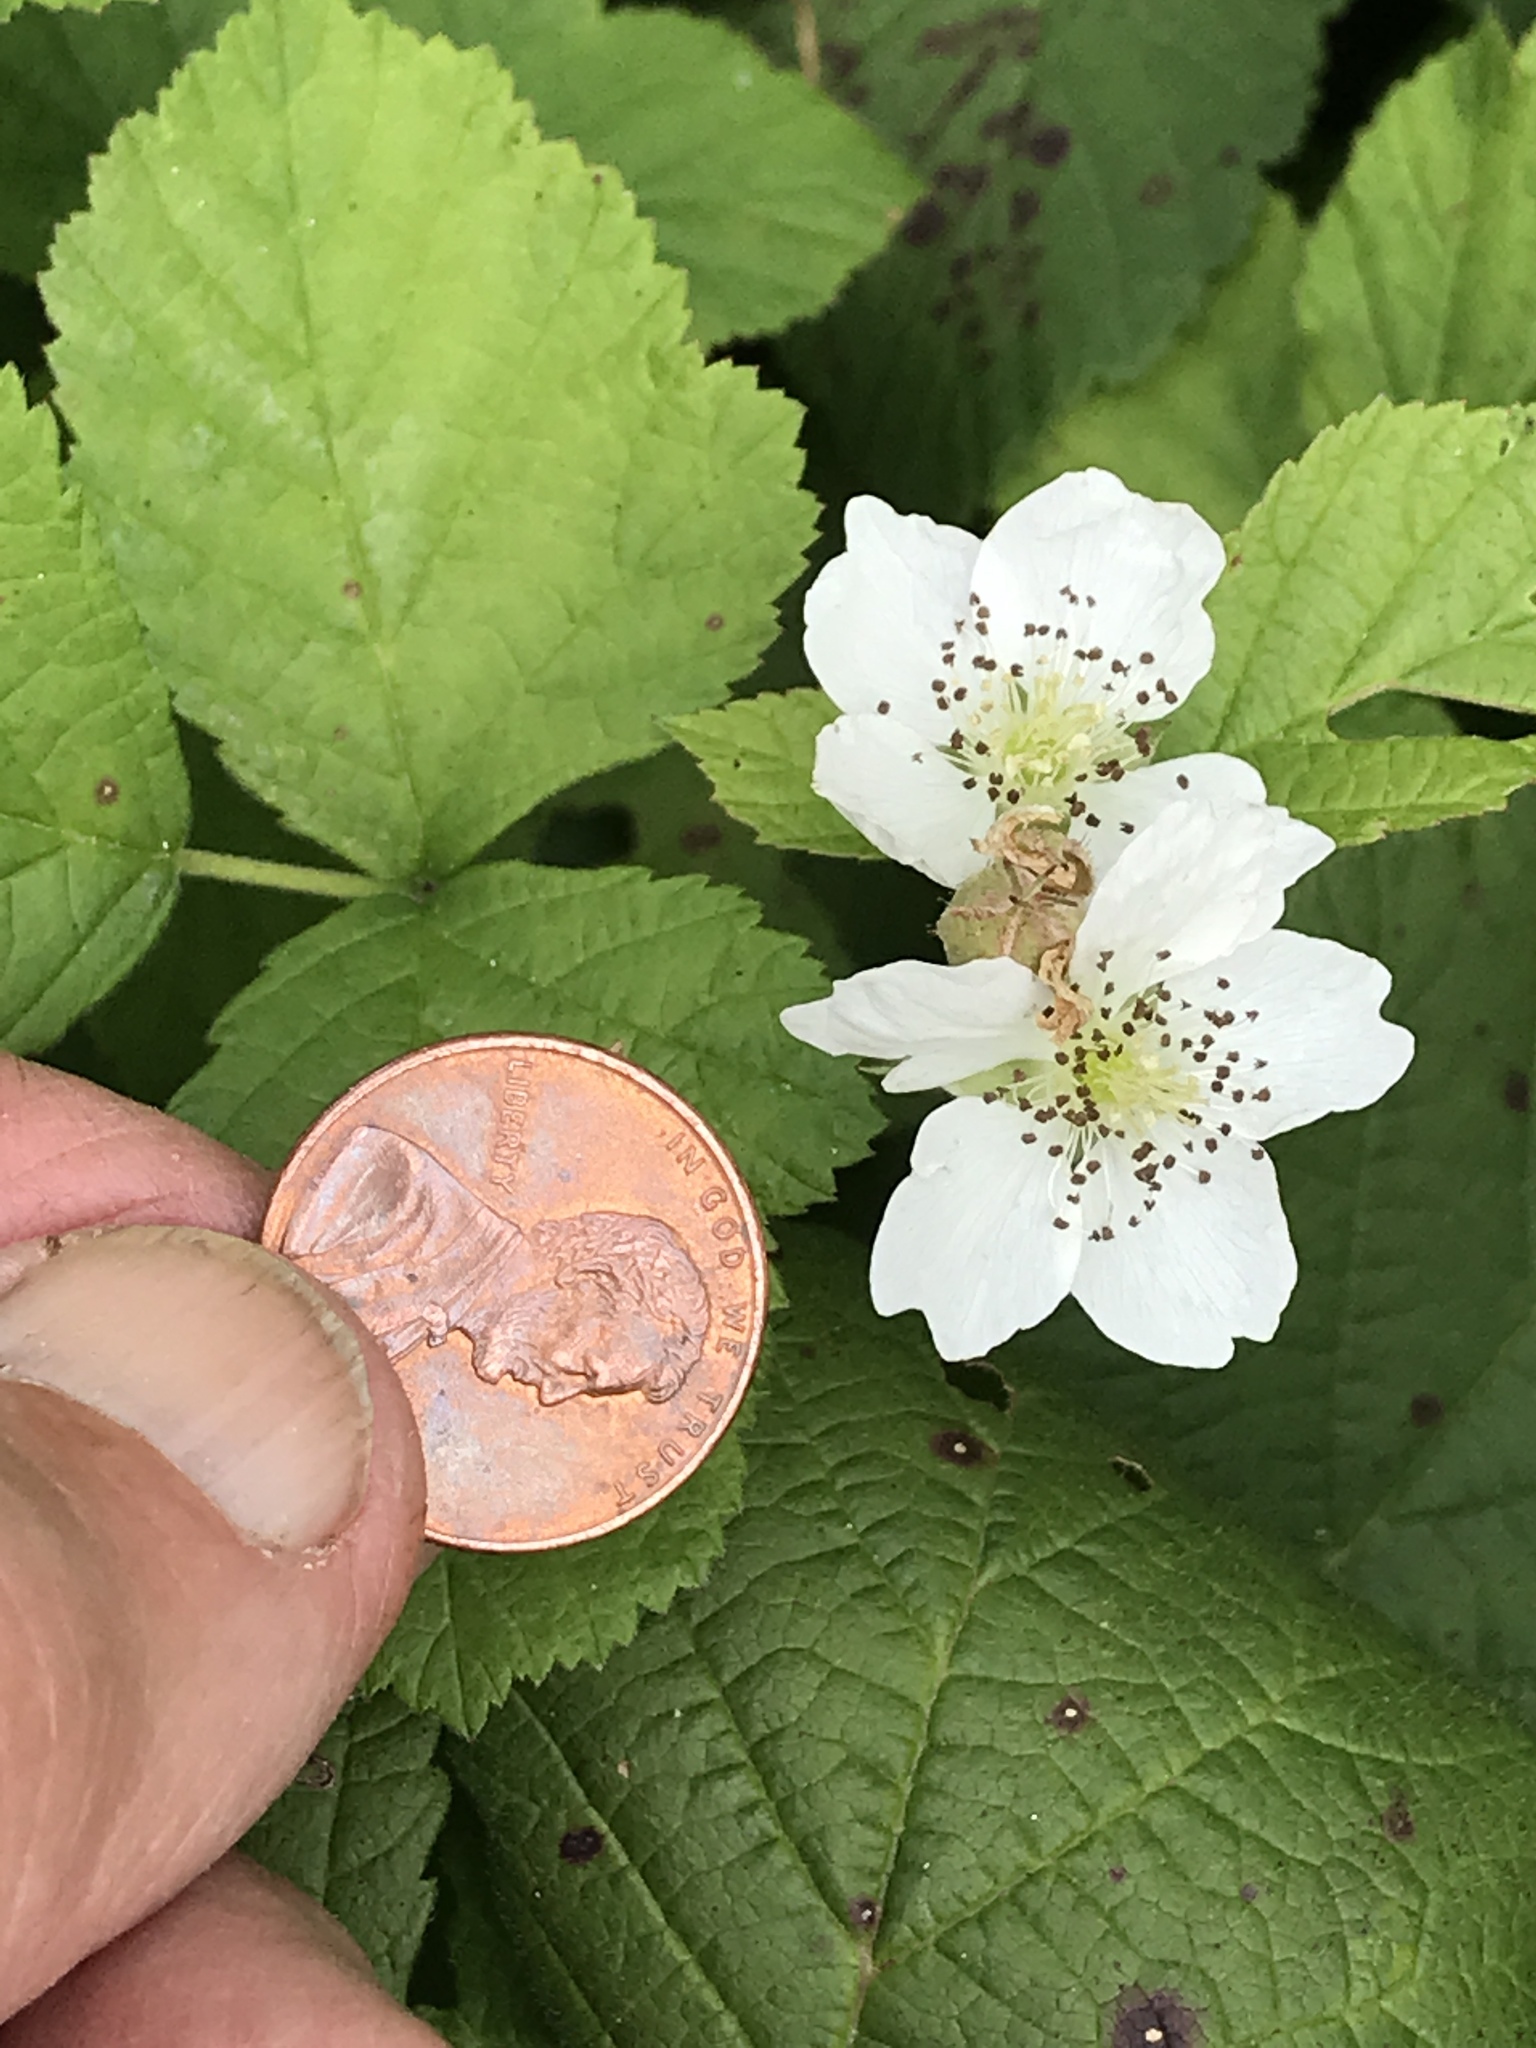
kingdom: Plantae
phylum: Tracheophyta
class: Magnoliopsida
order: Rosales
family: Rosaceae
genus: Rubus
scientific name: Rubus caesius
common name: Dewberry
